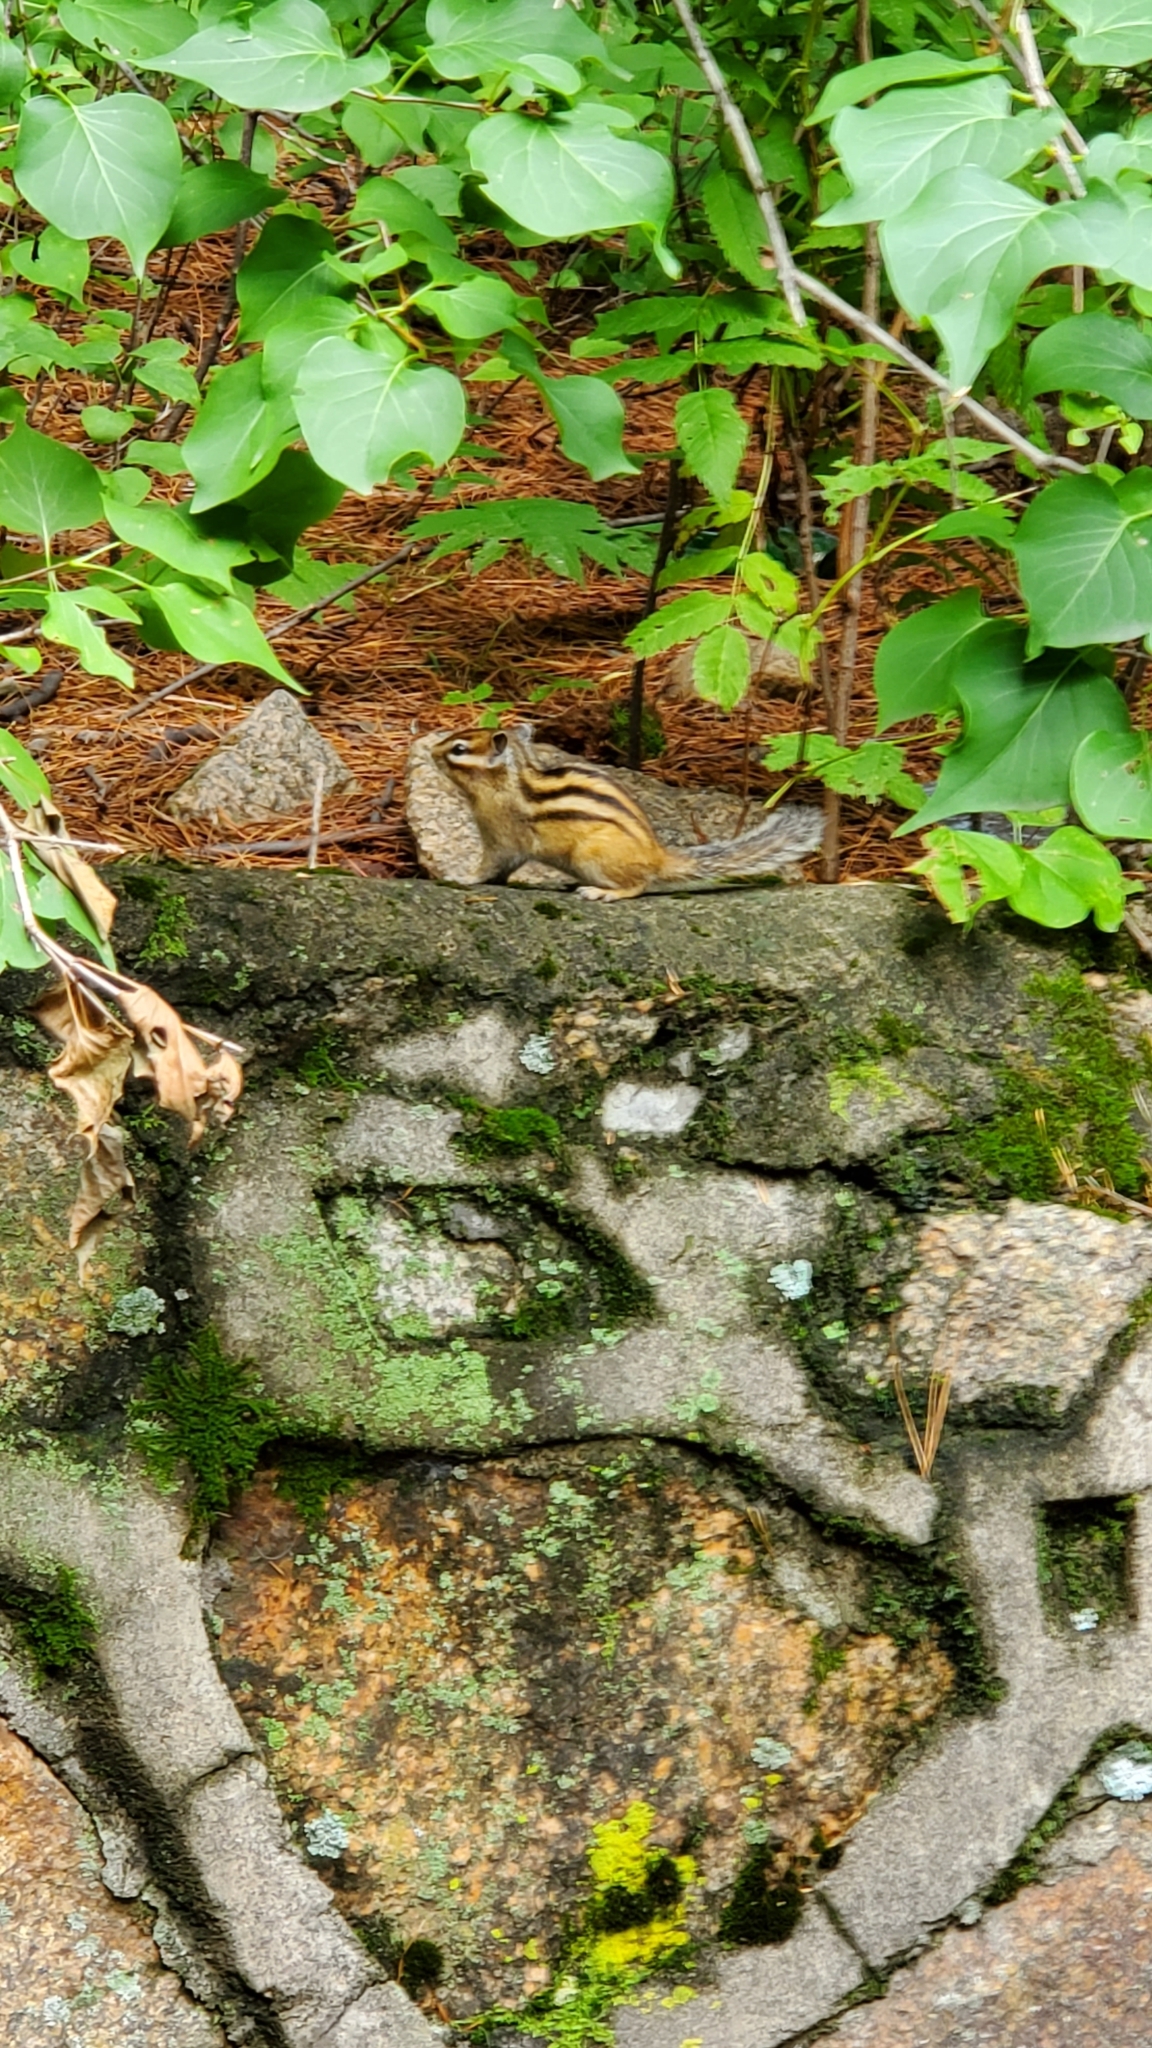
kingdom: Animalia
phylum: Chordata
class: Mammalia
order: Rodentia
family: Sciuridae
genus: Tamias
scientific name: Tamias sibiricus
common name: Siberian chipmunk
